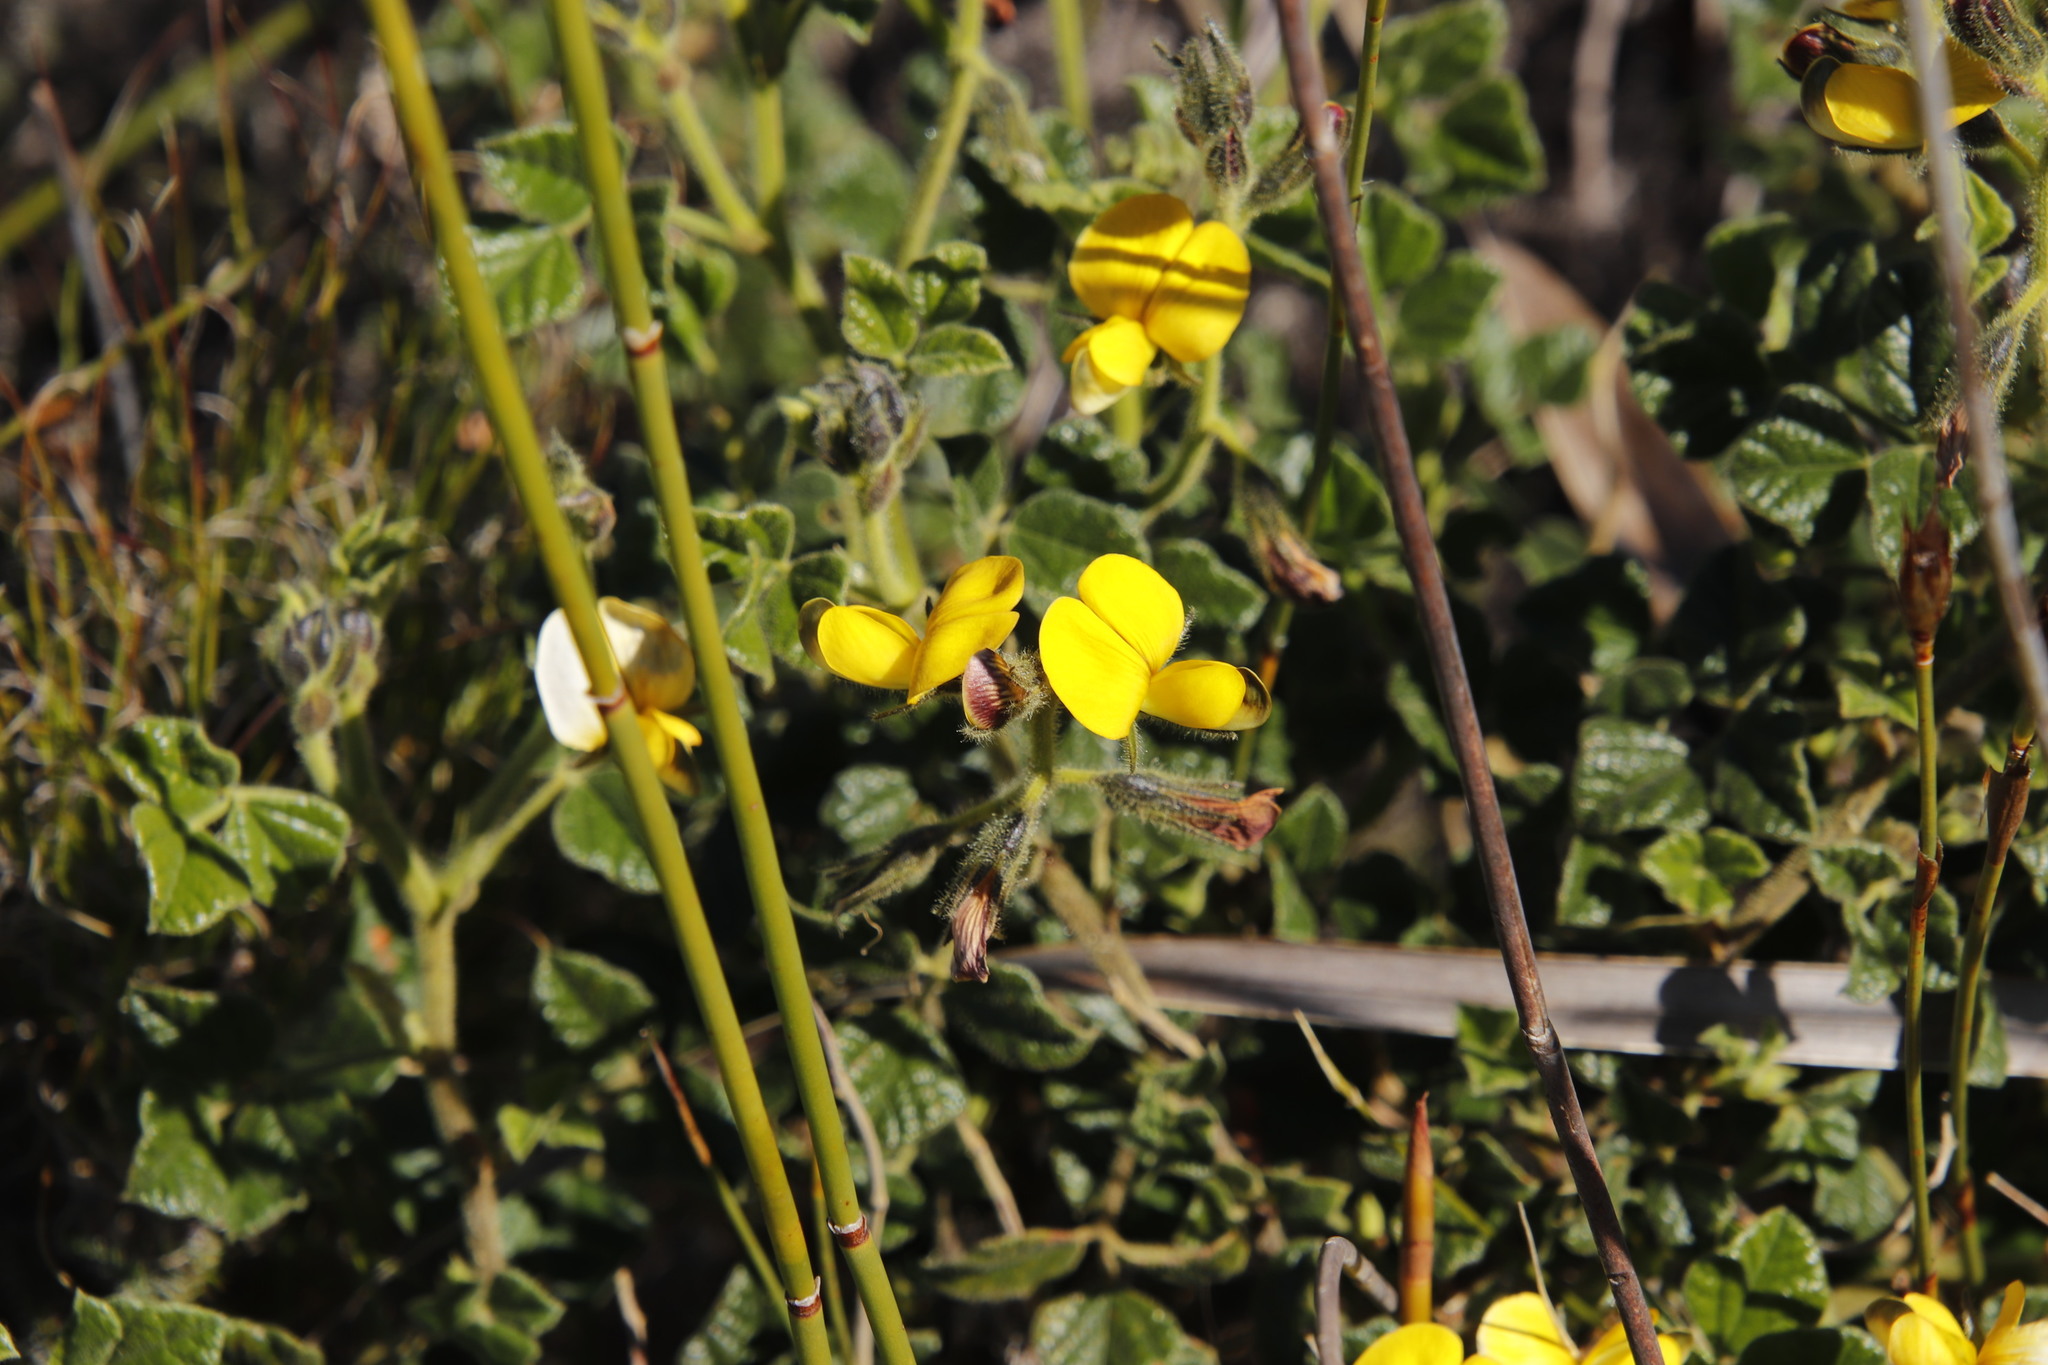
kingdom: Plantae
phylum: Tracheophyta
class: Magnoliopsida
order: Fabales
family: Fabaceae
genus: Bolusafra
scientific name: Bolusafra bituminosa
